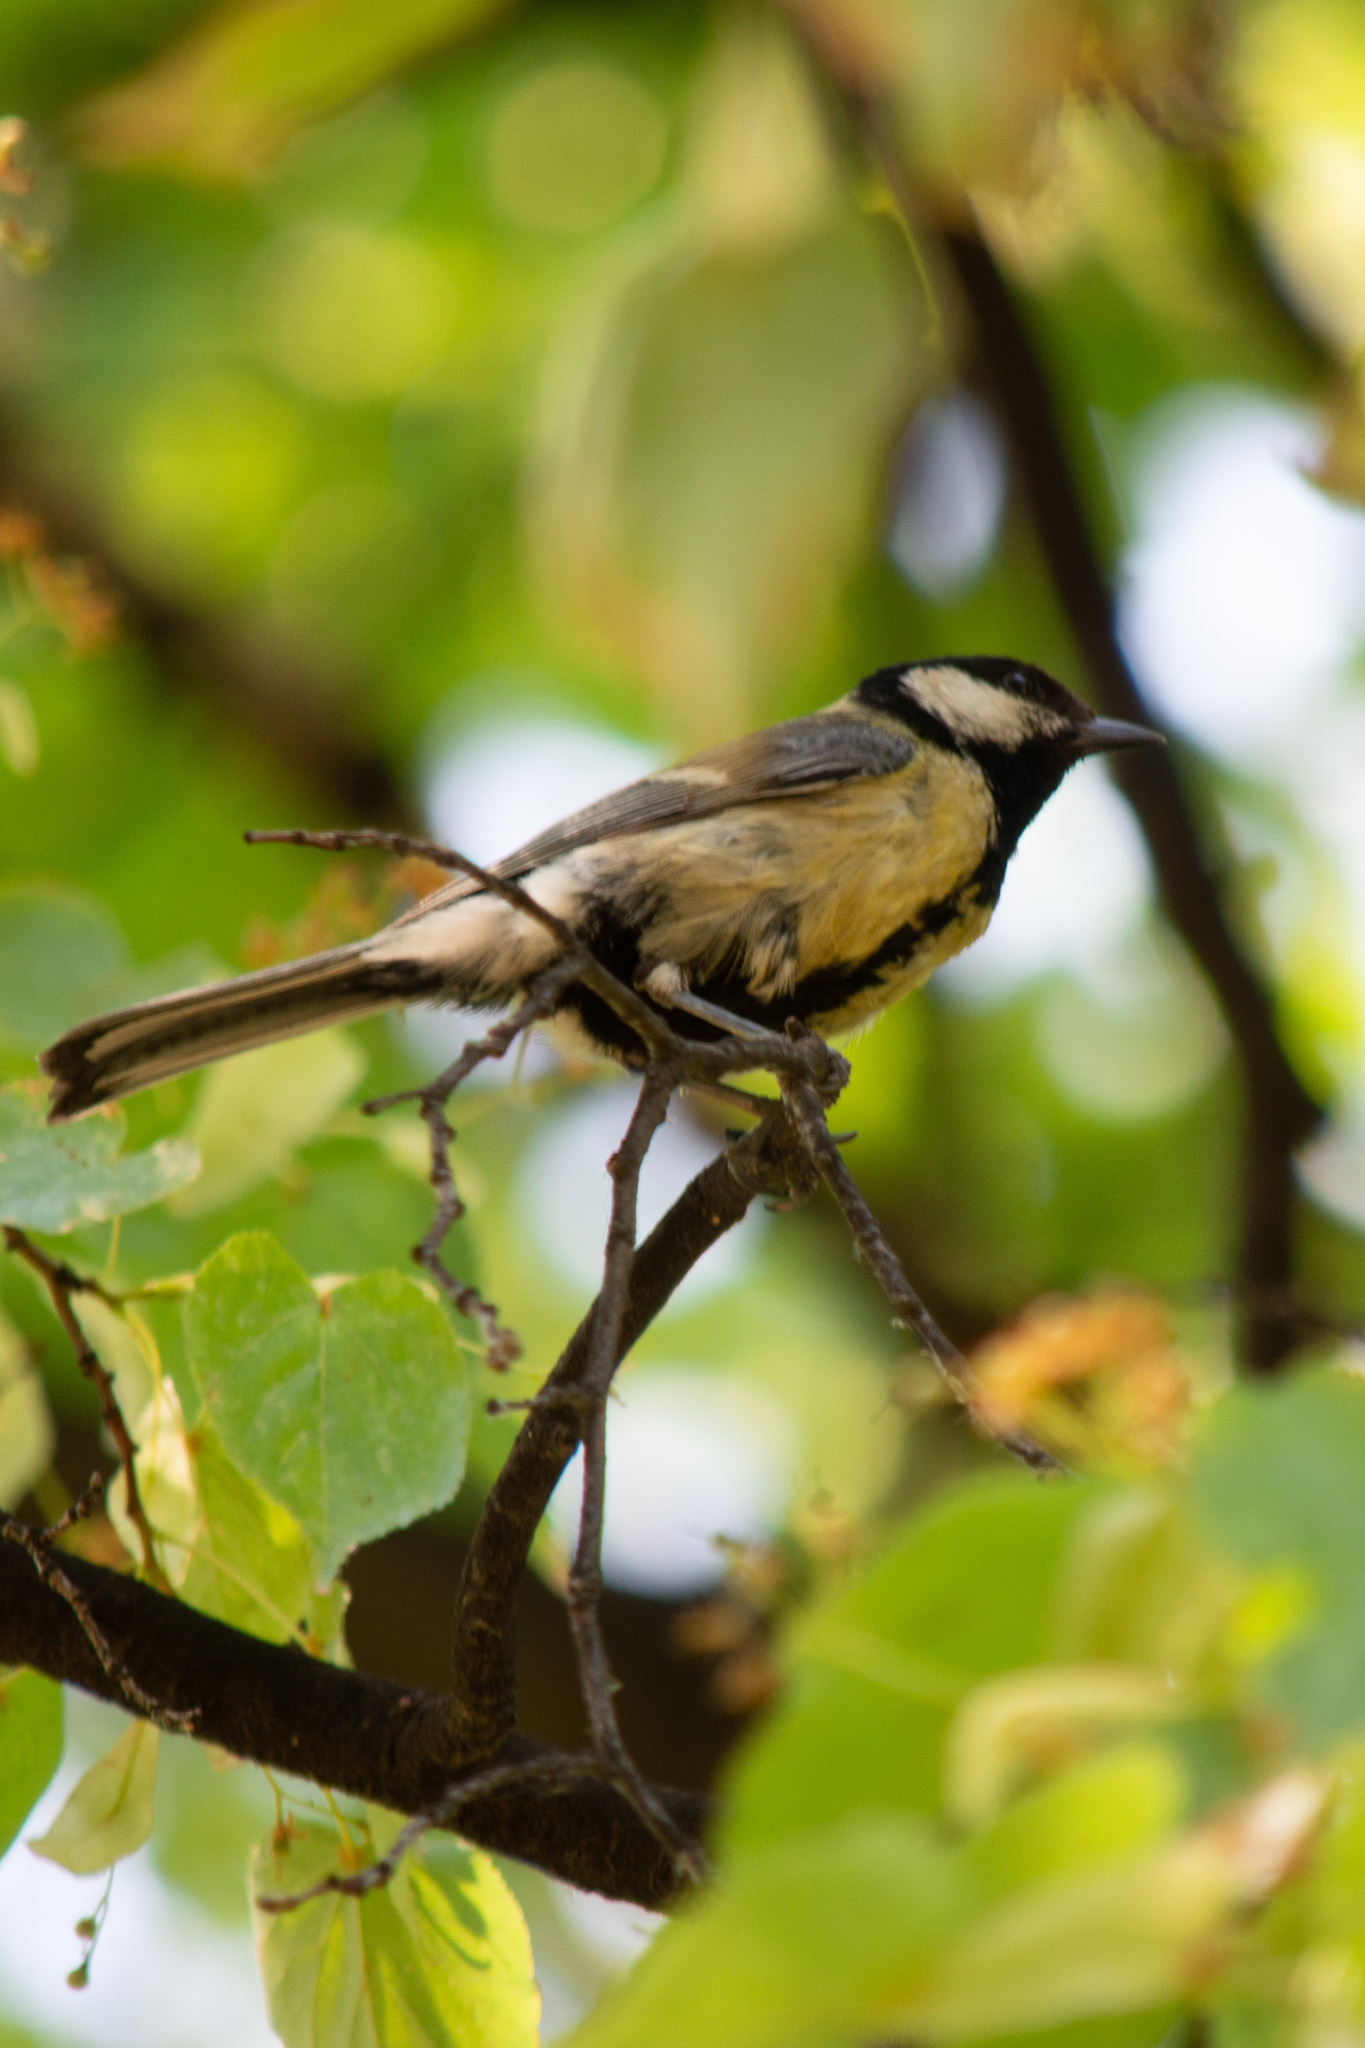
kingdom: Animalia
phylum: Chordata
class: Aves
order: Passeriformes
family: Paridae
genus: Parus
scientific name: Parus major
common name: Great tit
